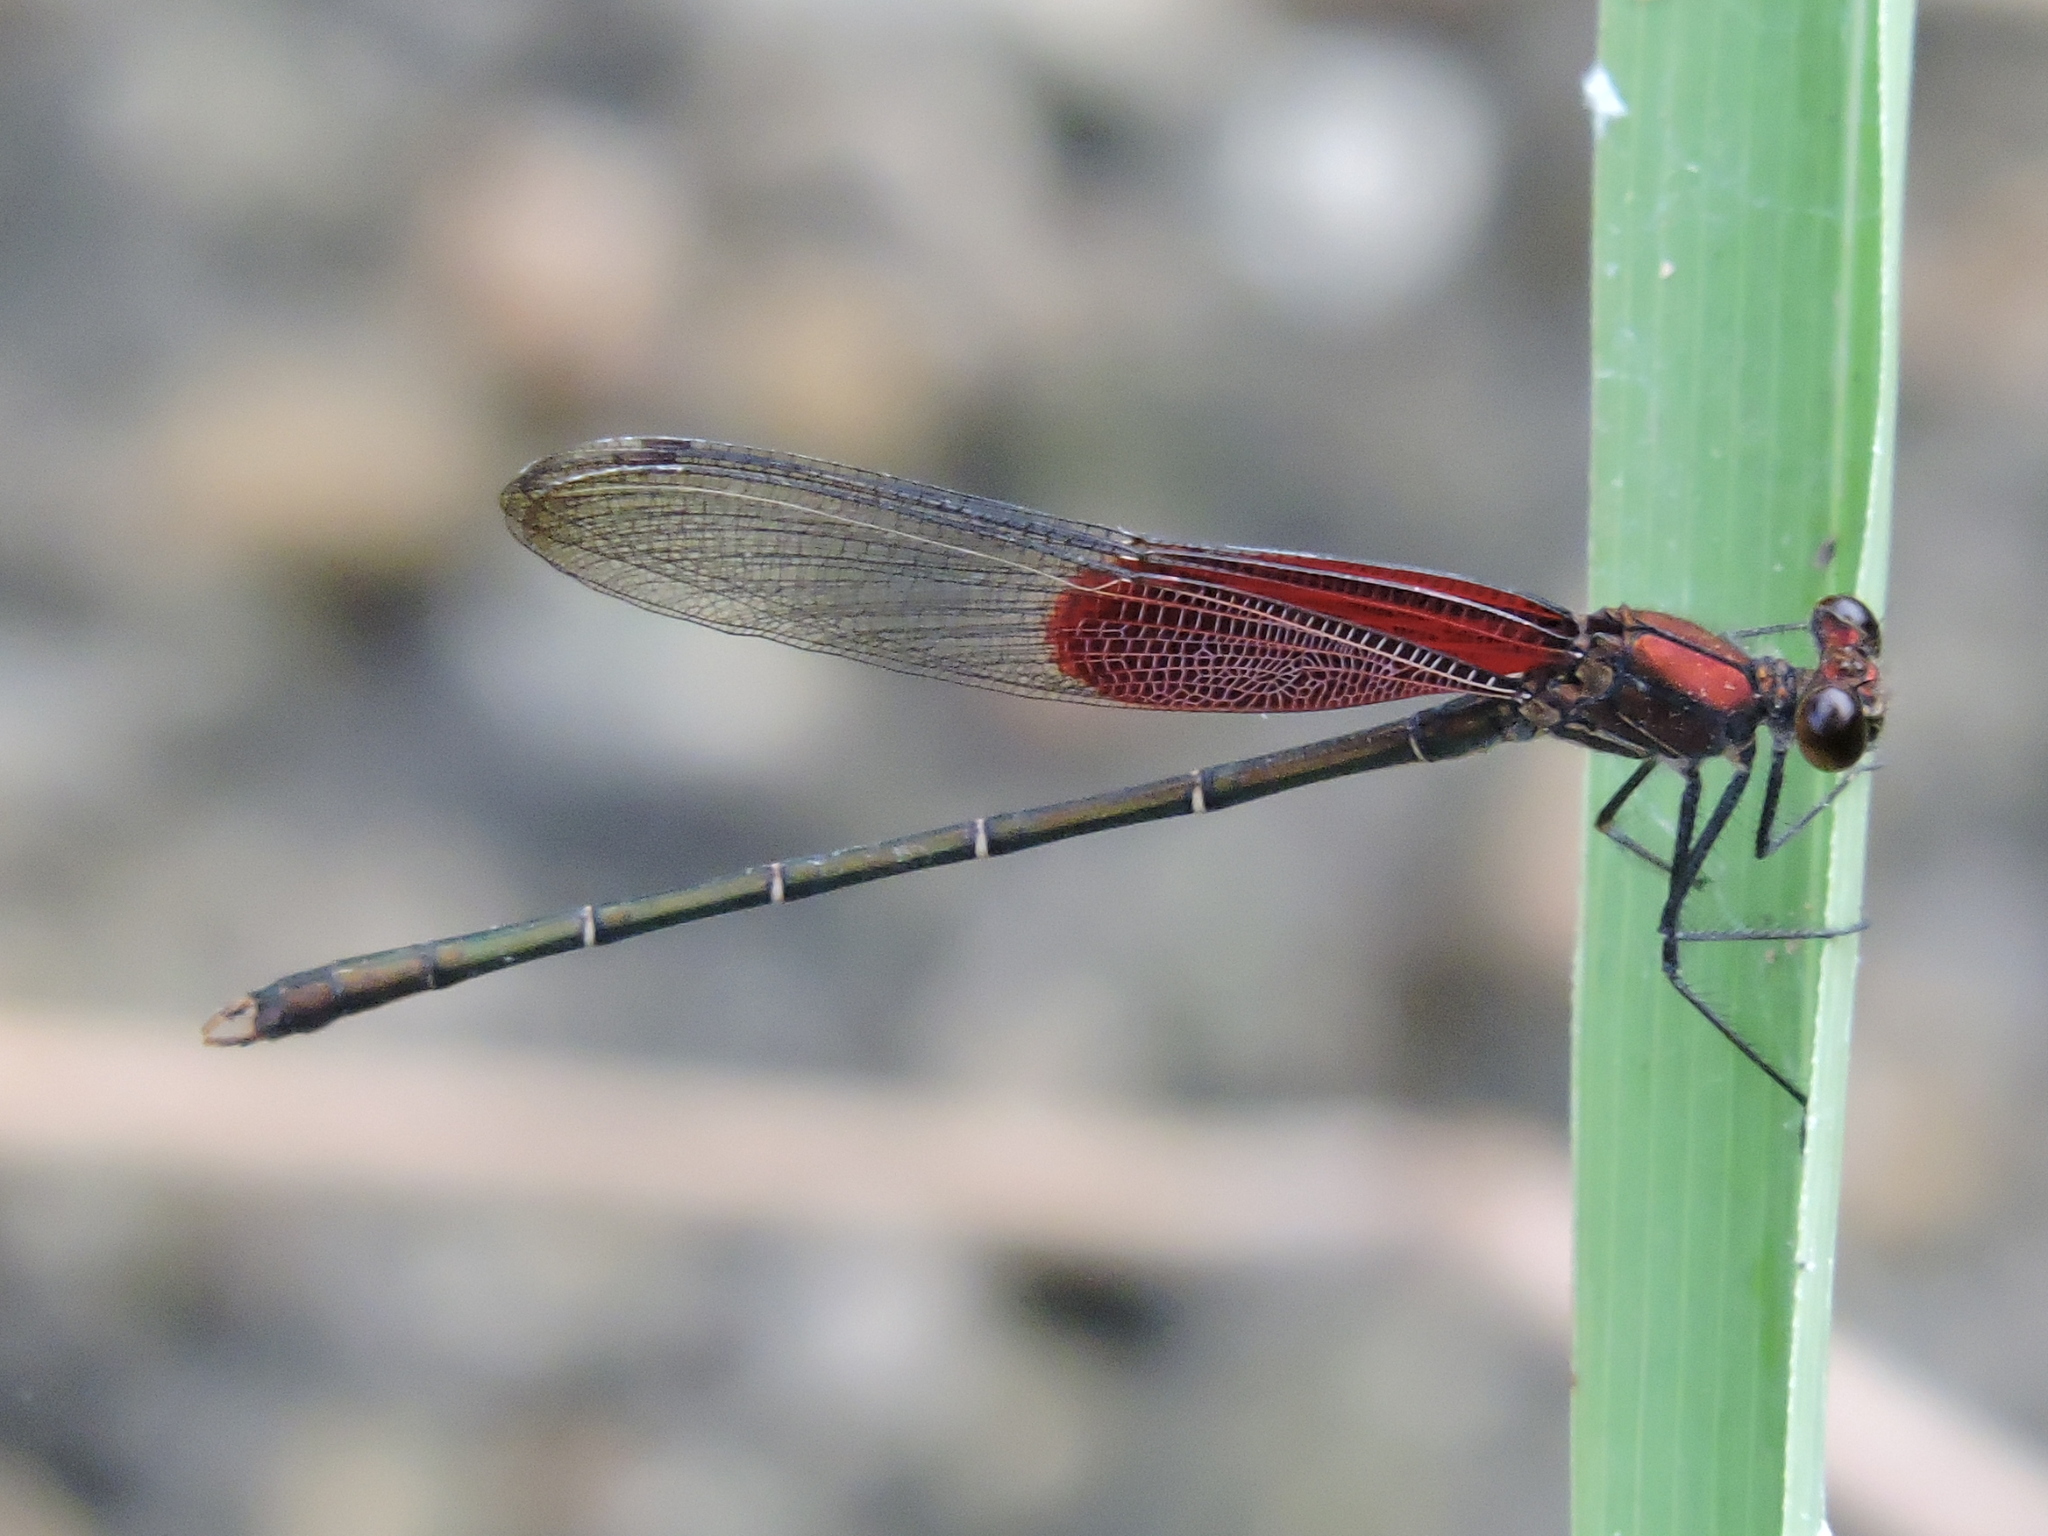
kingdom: Animalia
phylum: Arthropoda
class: Insecta
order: Odonata
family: Calopterygidae
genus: Hetaerina
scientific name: Hetaerina americana
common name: American rubyspot
